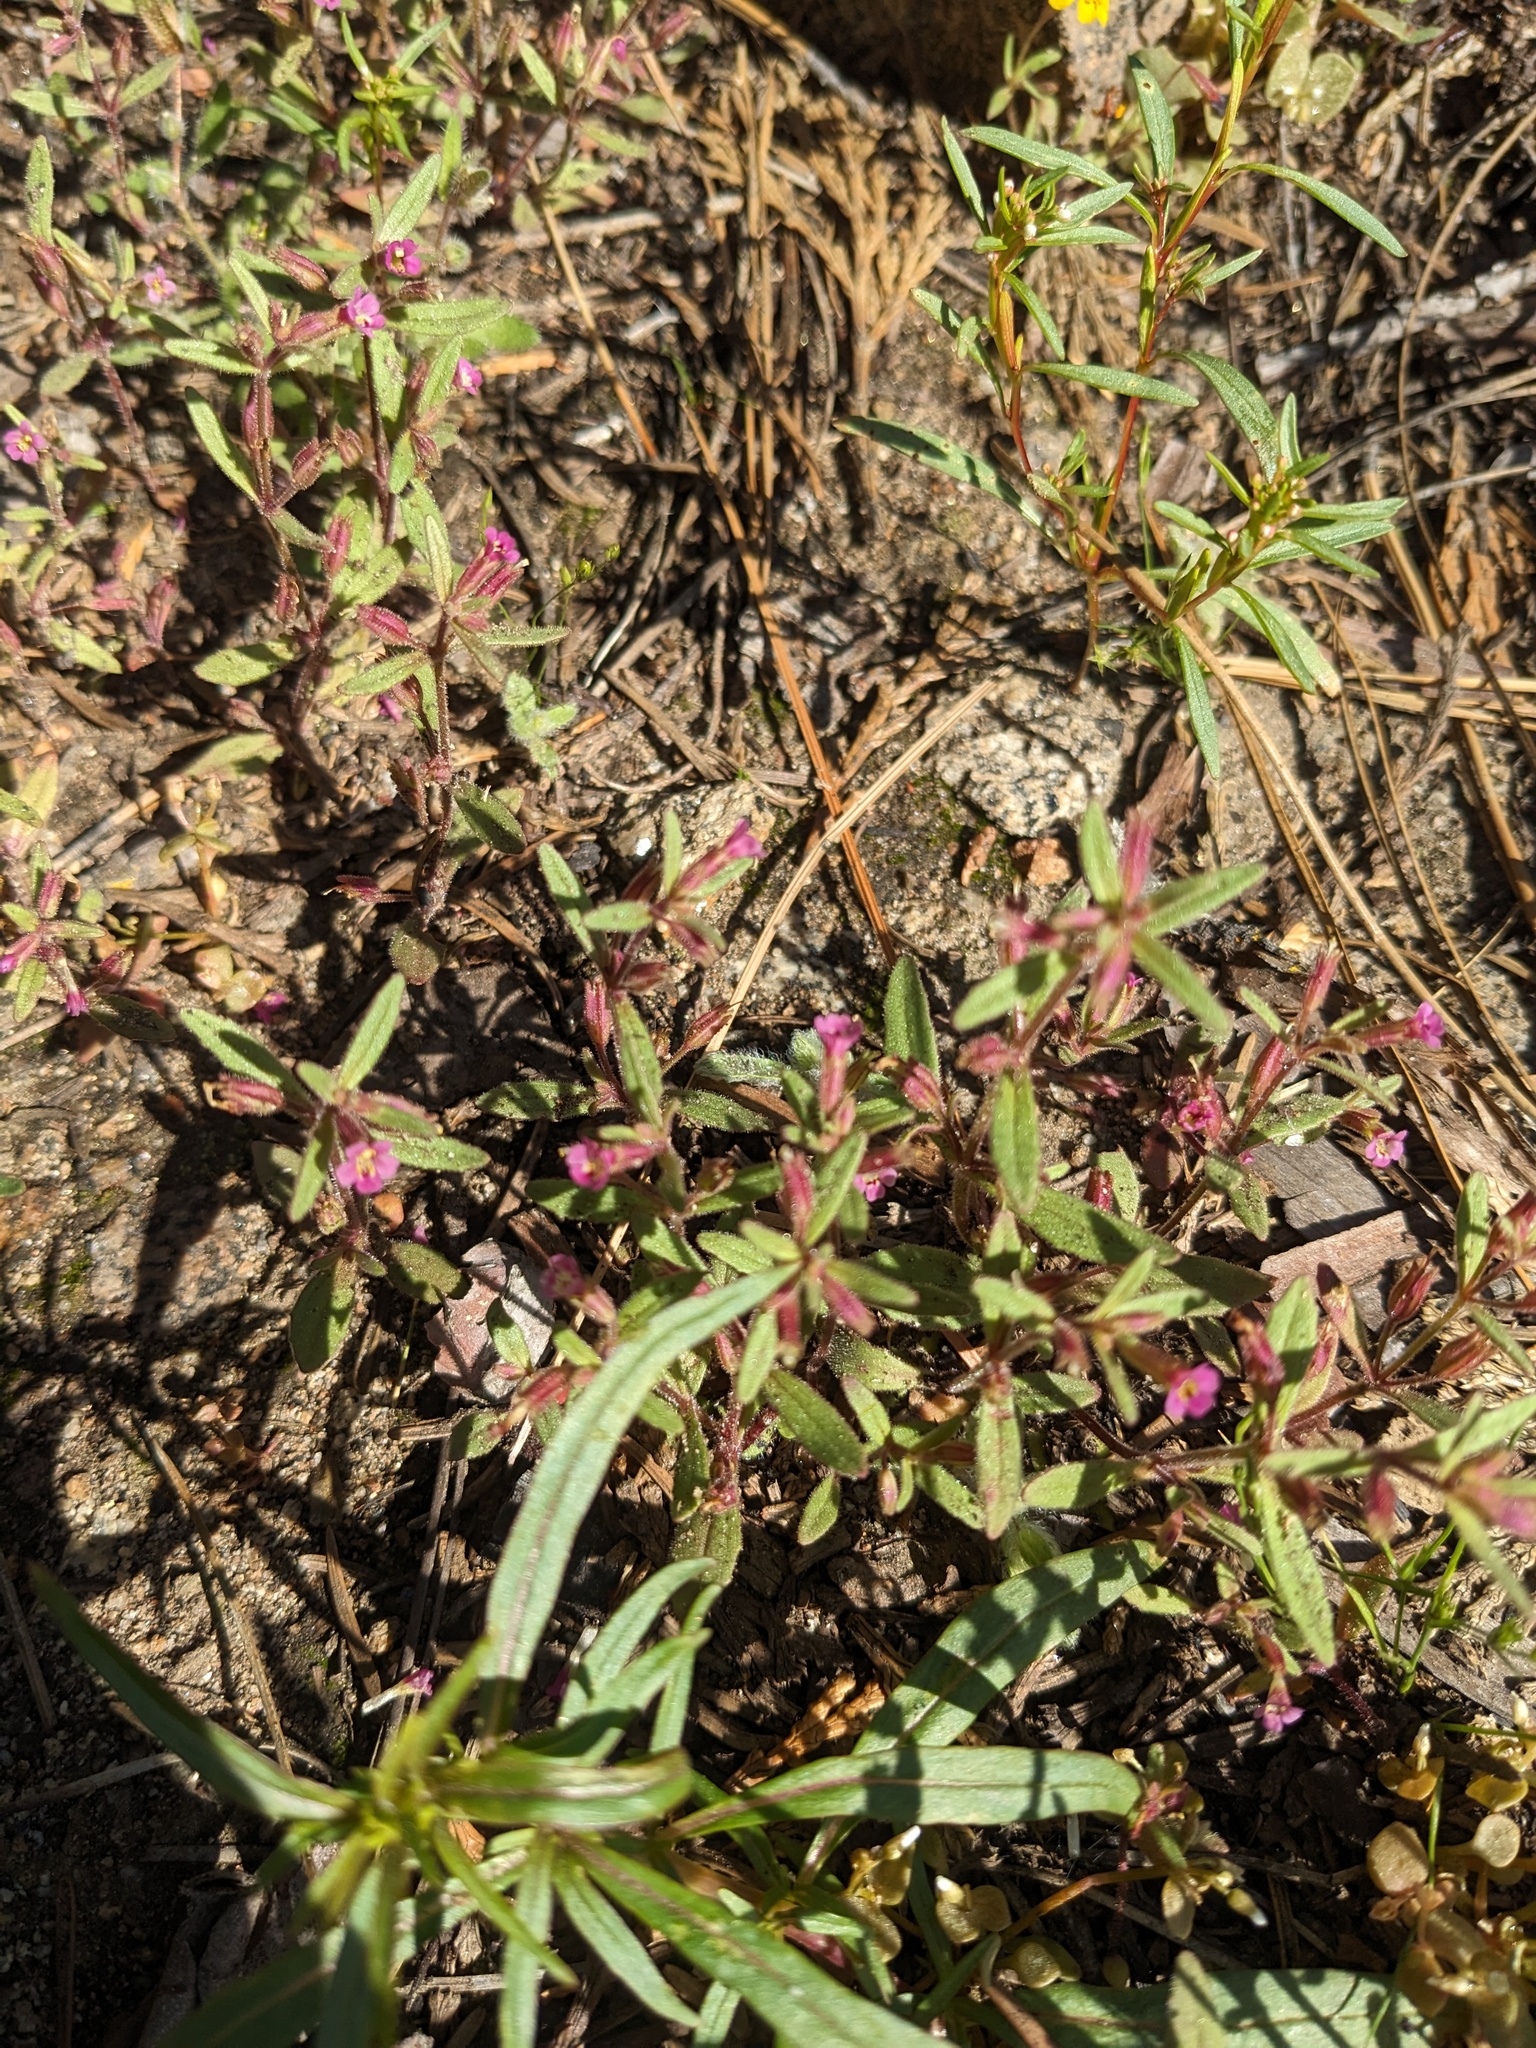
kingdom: Plantae
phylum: Tracheophyta
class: Magnoliopsida
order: Lamiales
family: Phrymaceae
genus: Erythranthe
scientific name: Erythranthe breweri
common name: Brewer's monkeyflower
